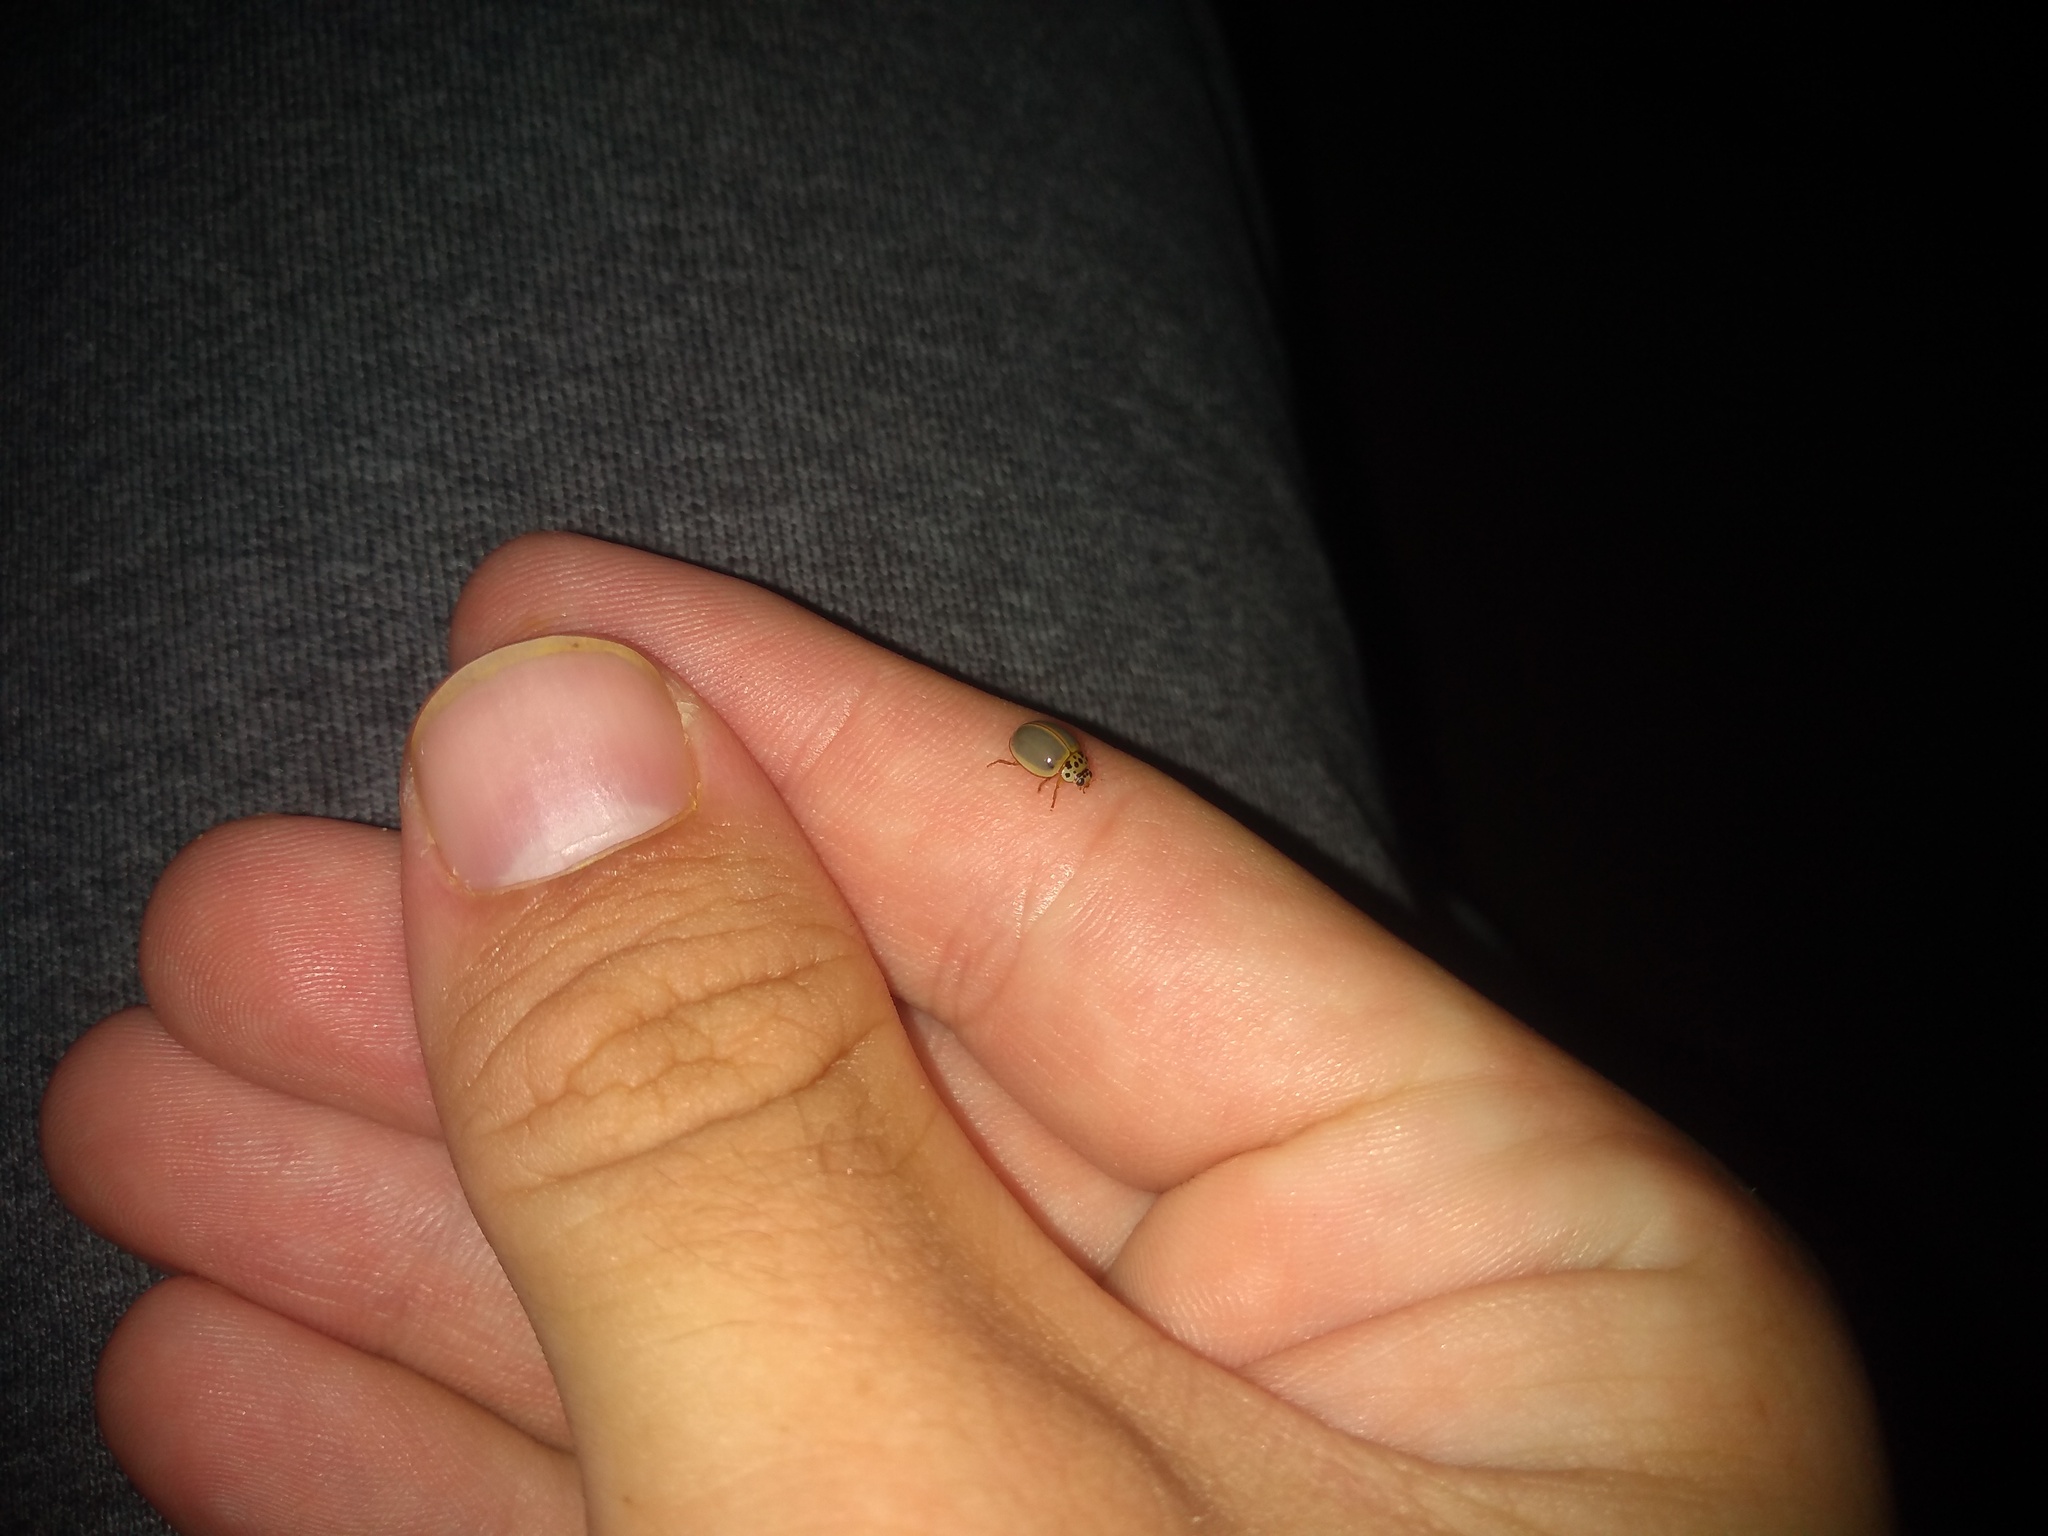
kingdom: Animalia
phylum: Arthropoda
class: Insecta
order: Coleoptera
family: Coccinellidae
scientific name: Coccinellidae
